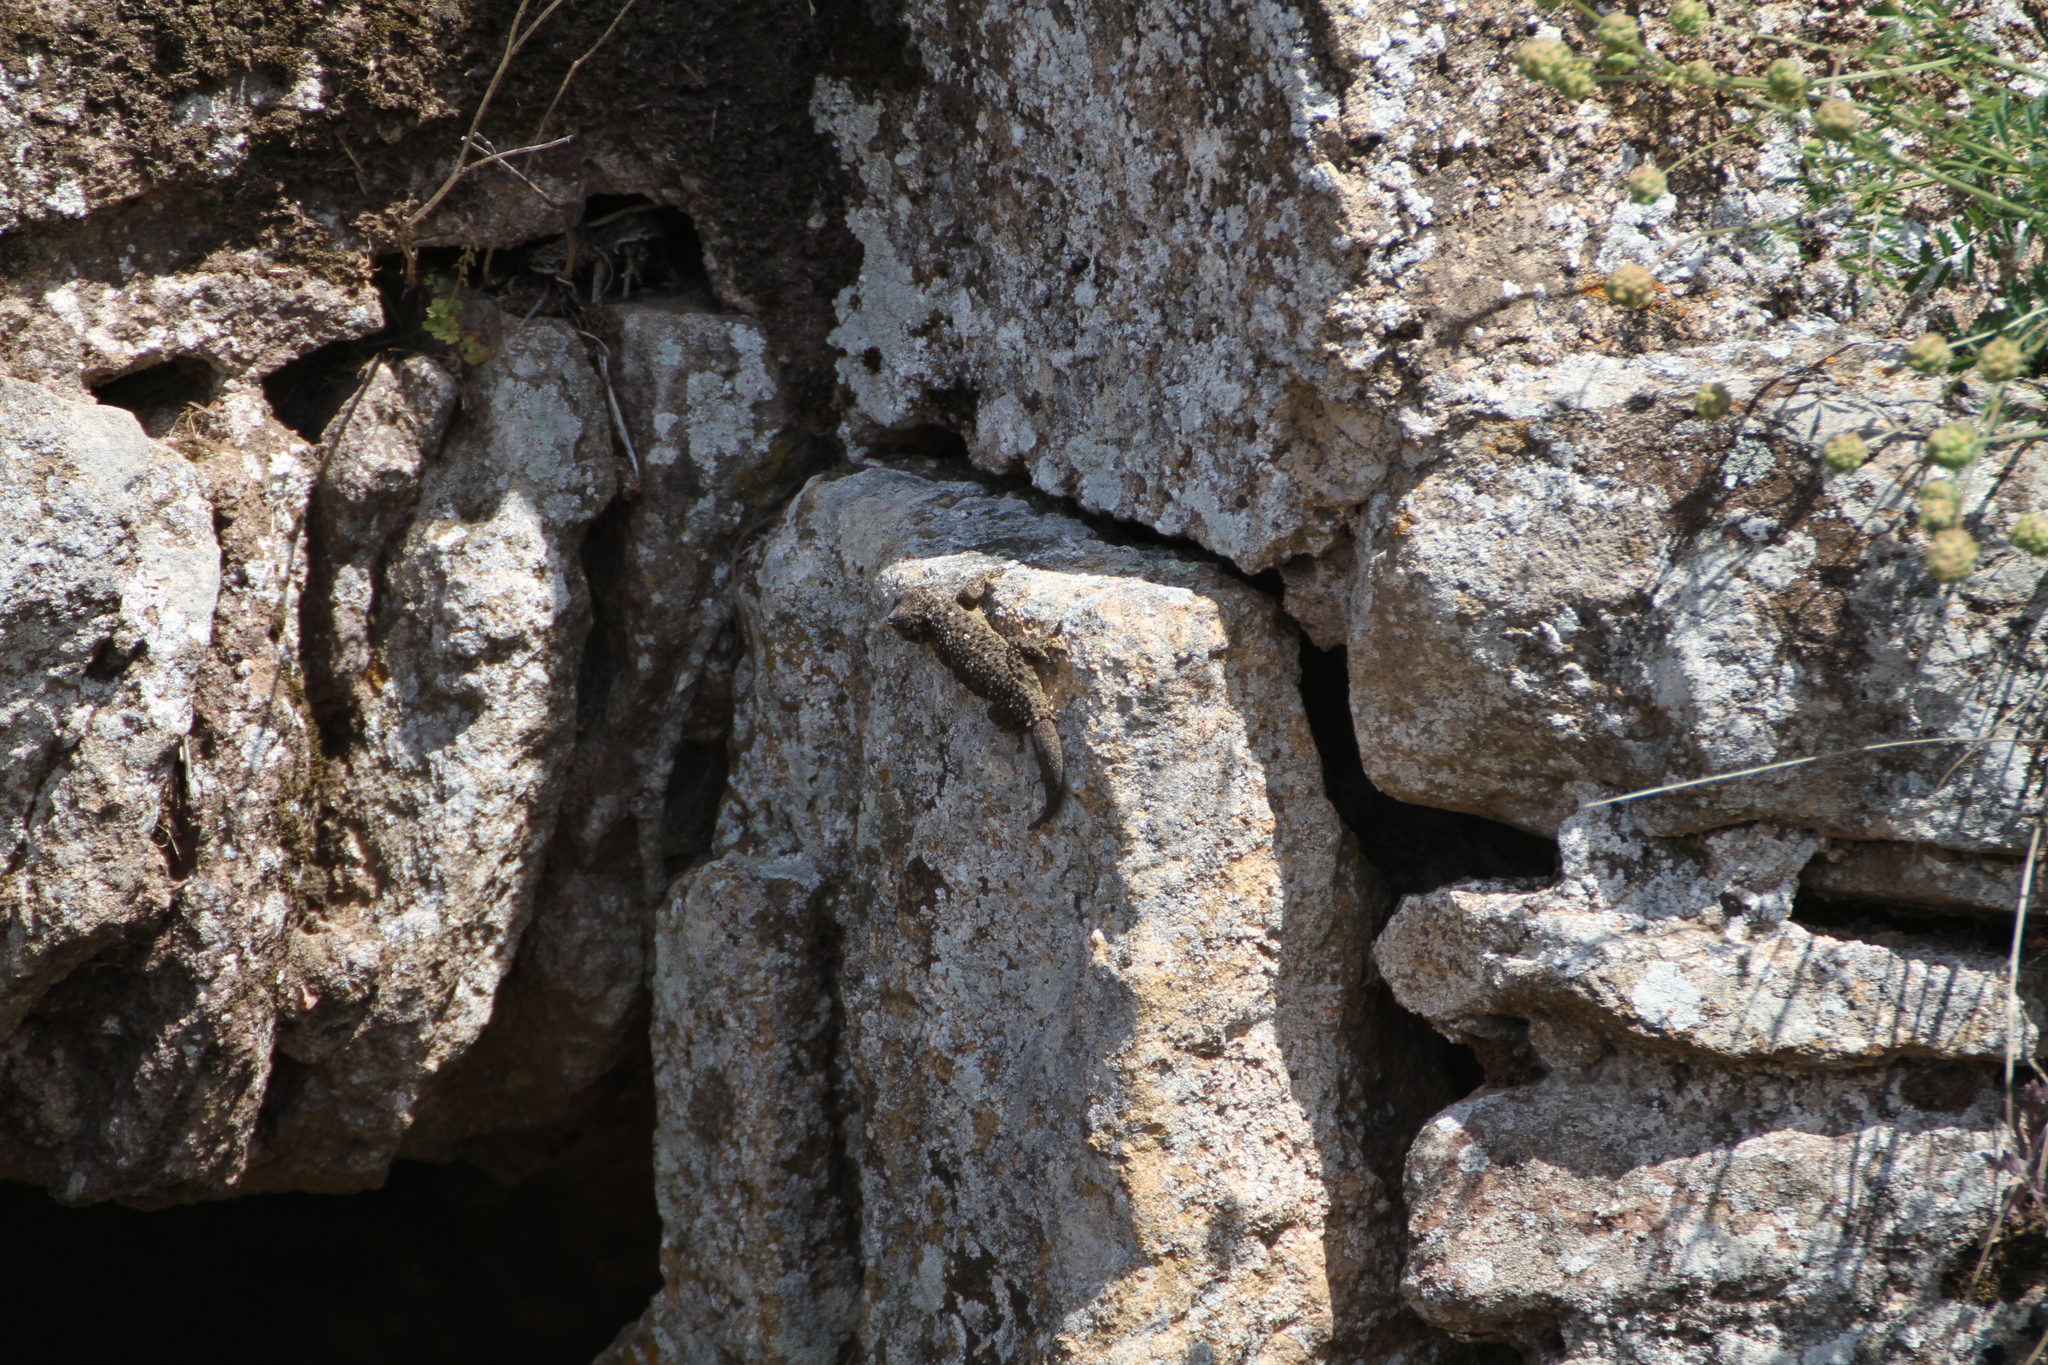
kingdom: Animalia
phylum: Chordata
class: Squamata
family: Phyllodactylidae
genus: Tarentola
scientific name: Tarentola mauritanica
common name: Moorish gecko
